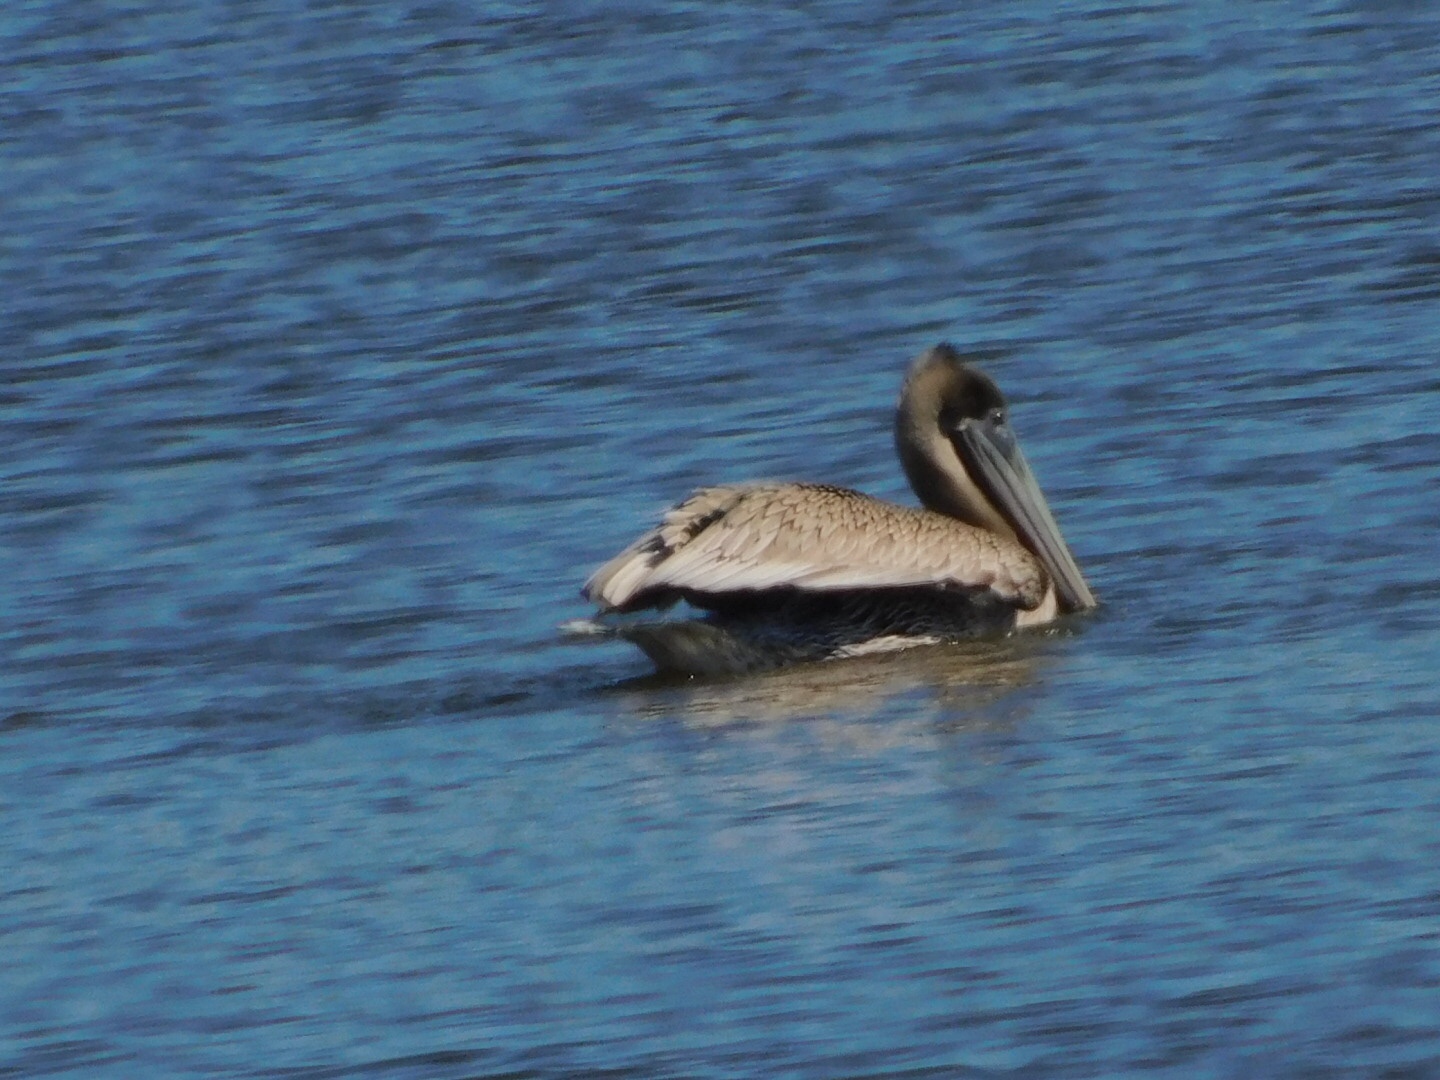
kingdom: Animalia
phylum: Chordata
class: Aves
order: Pelecaniformes
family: Pelecanidae
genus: Pelecanus
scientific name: Pelecanus occidentalis
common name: Brown pelican
